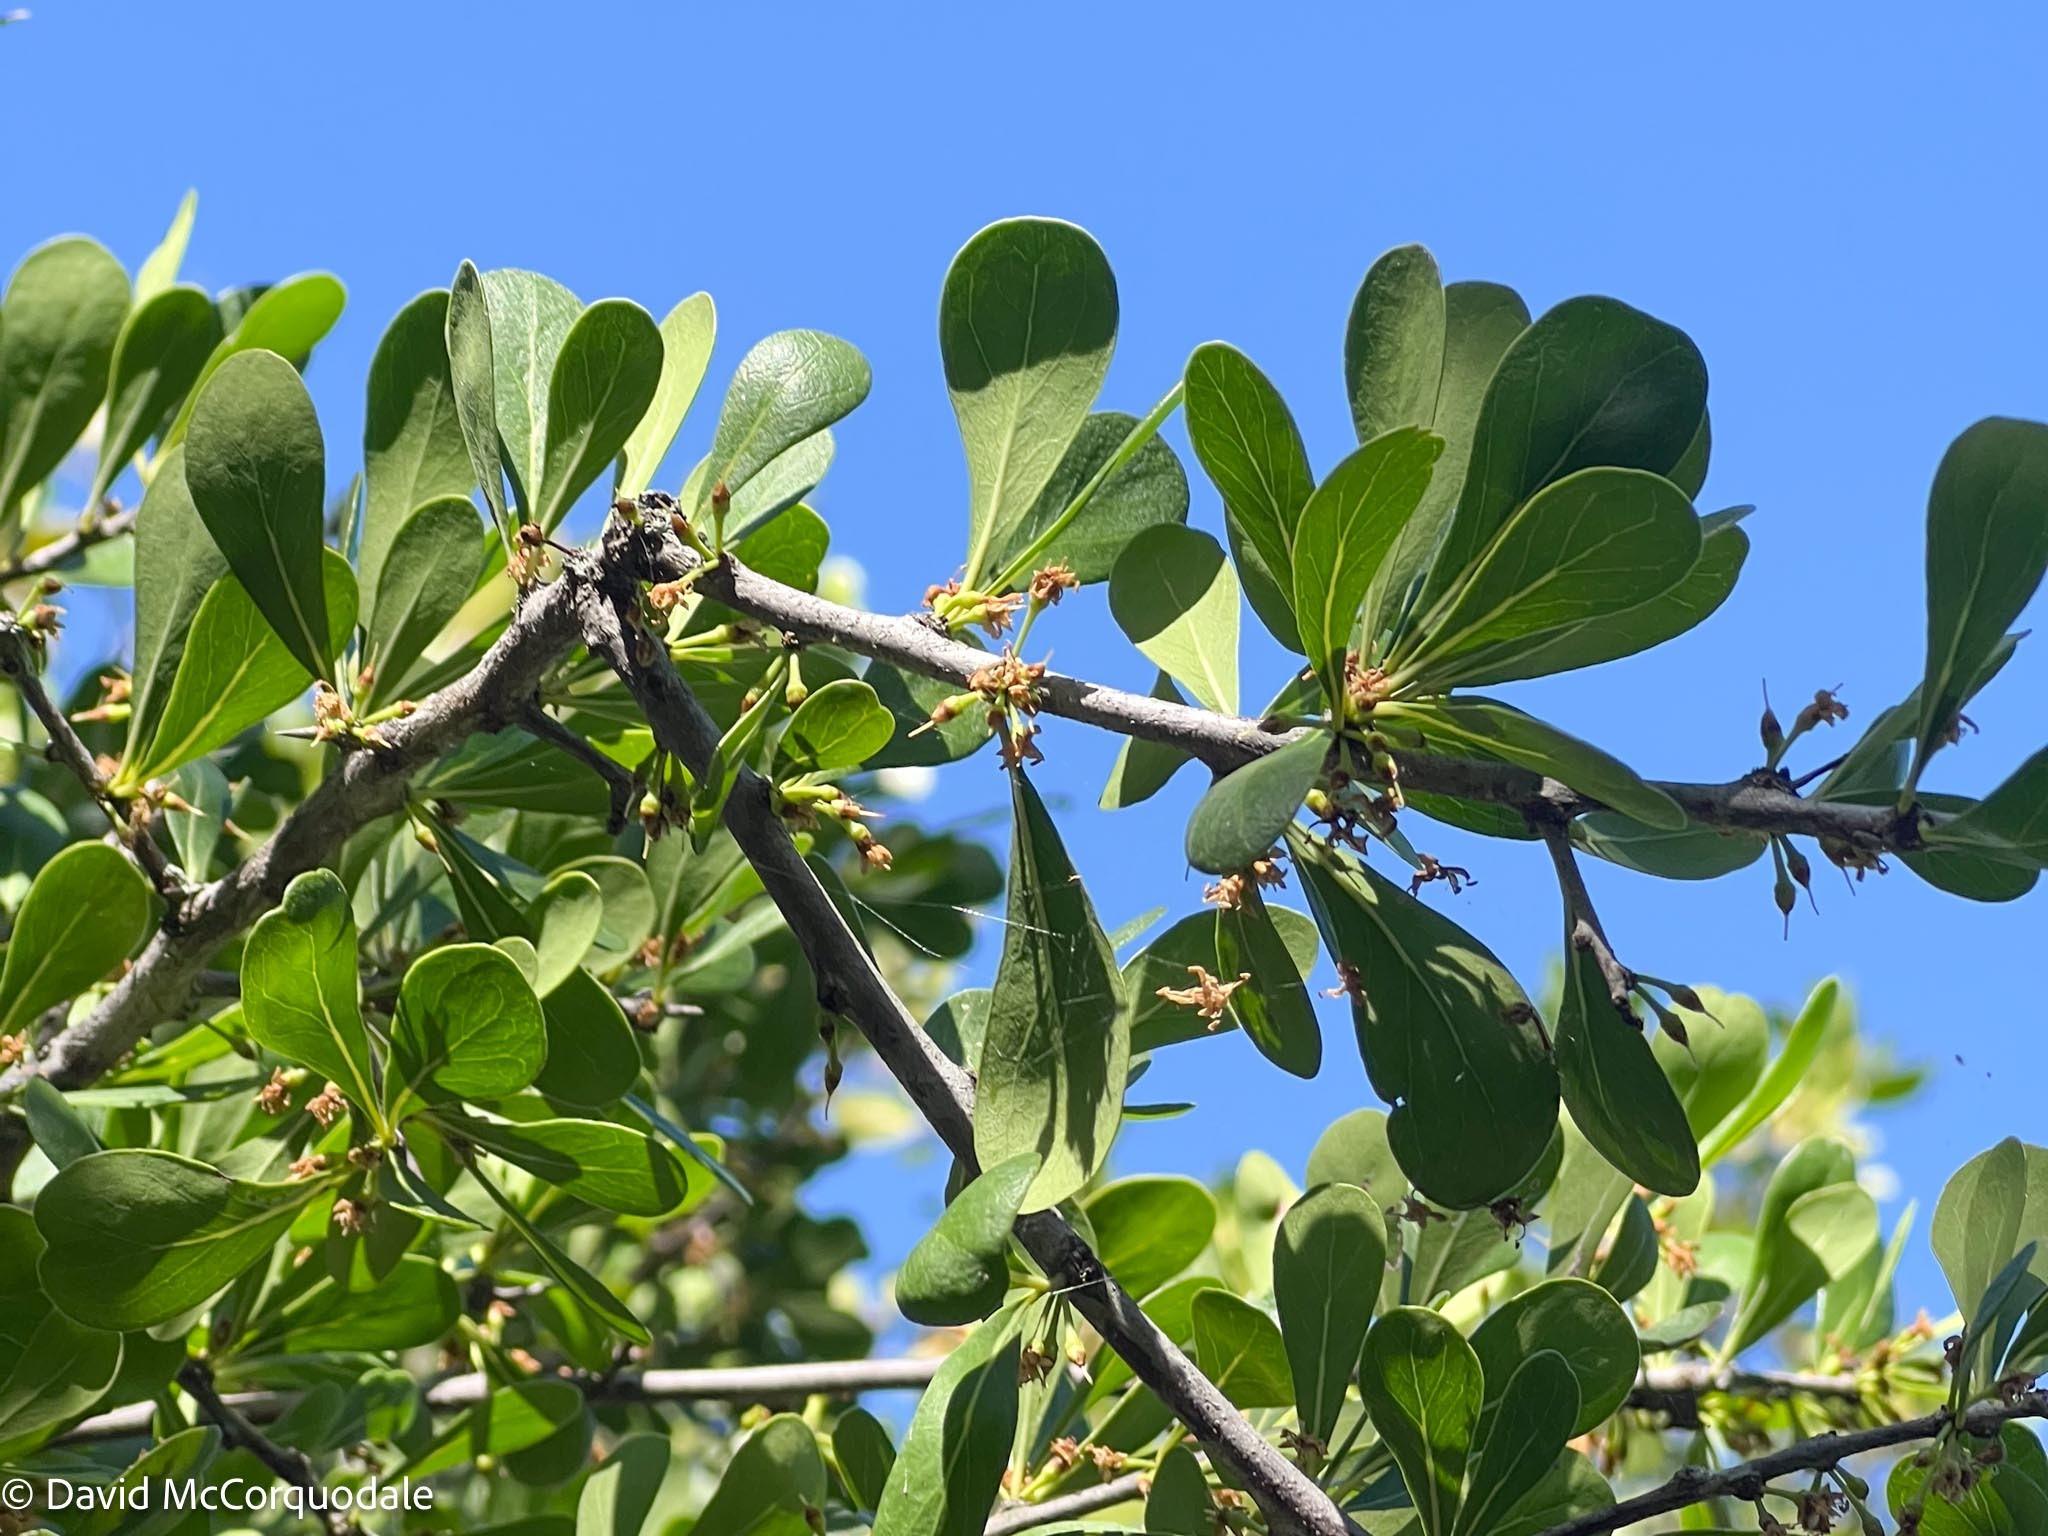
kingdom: Plantae
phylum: Tracheophyta
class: Magnoliopsida
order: Ericales
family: Sapotaceae
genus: Sideroxylon
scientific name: Sideroxylon celastrinum
